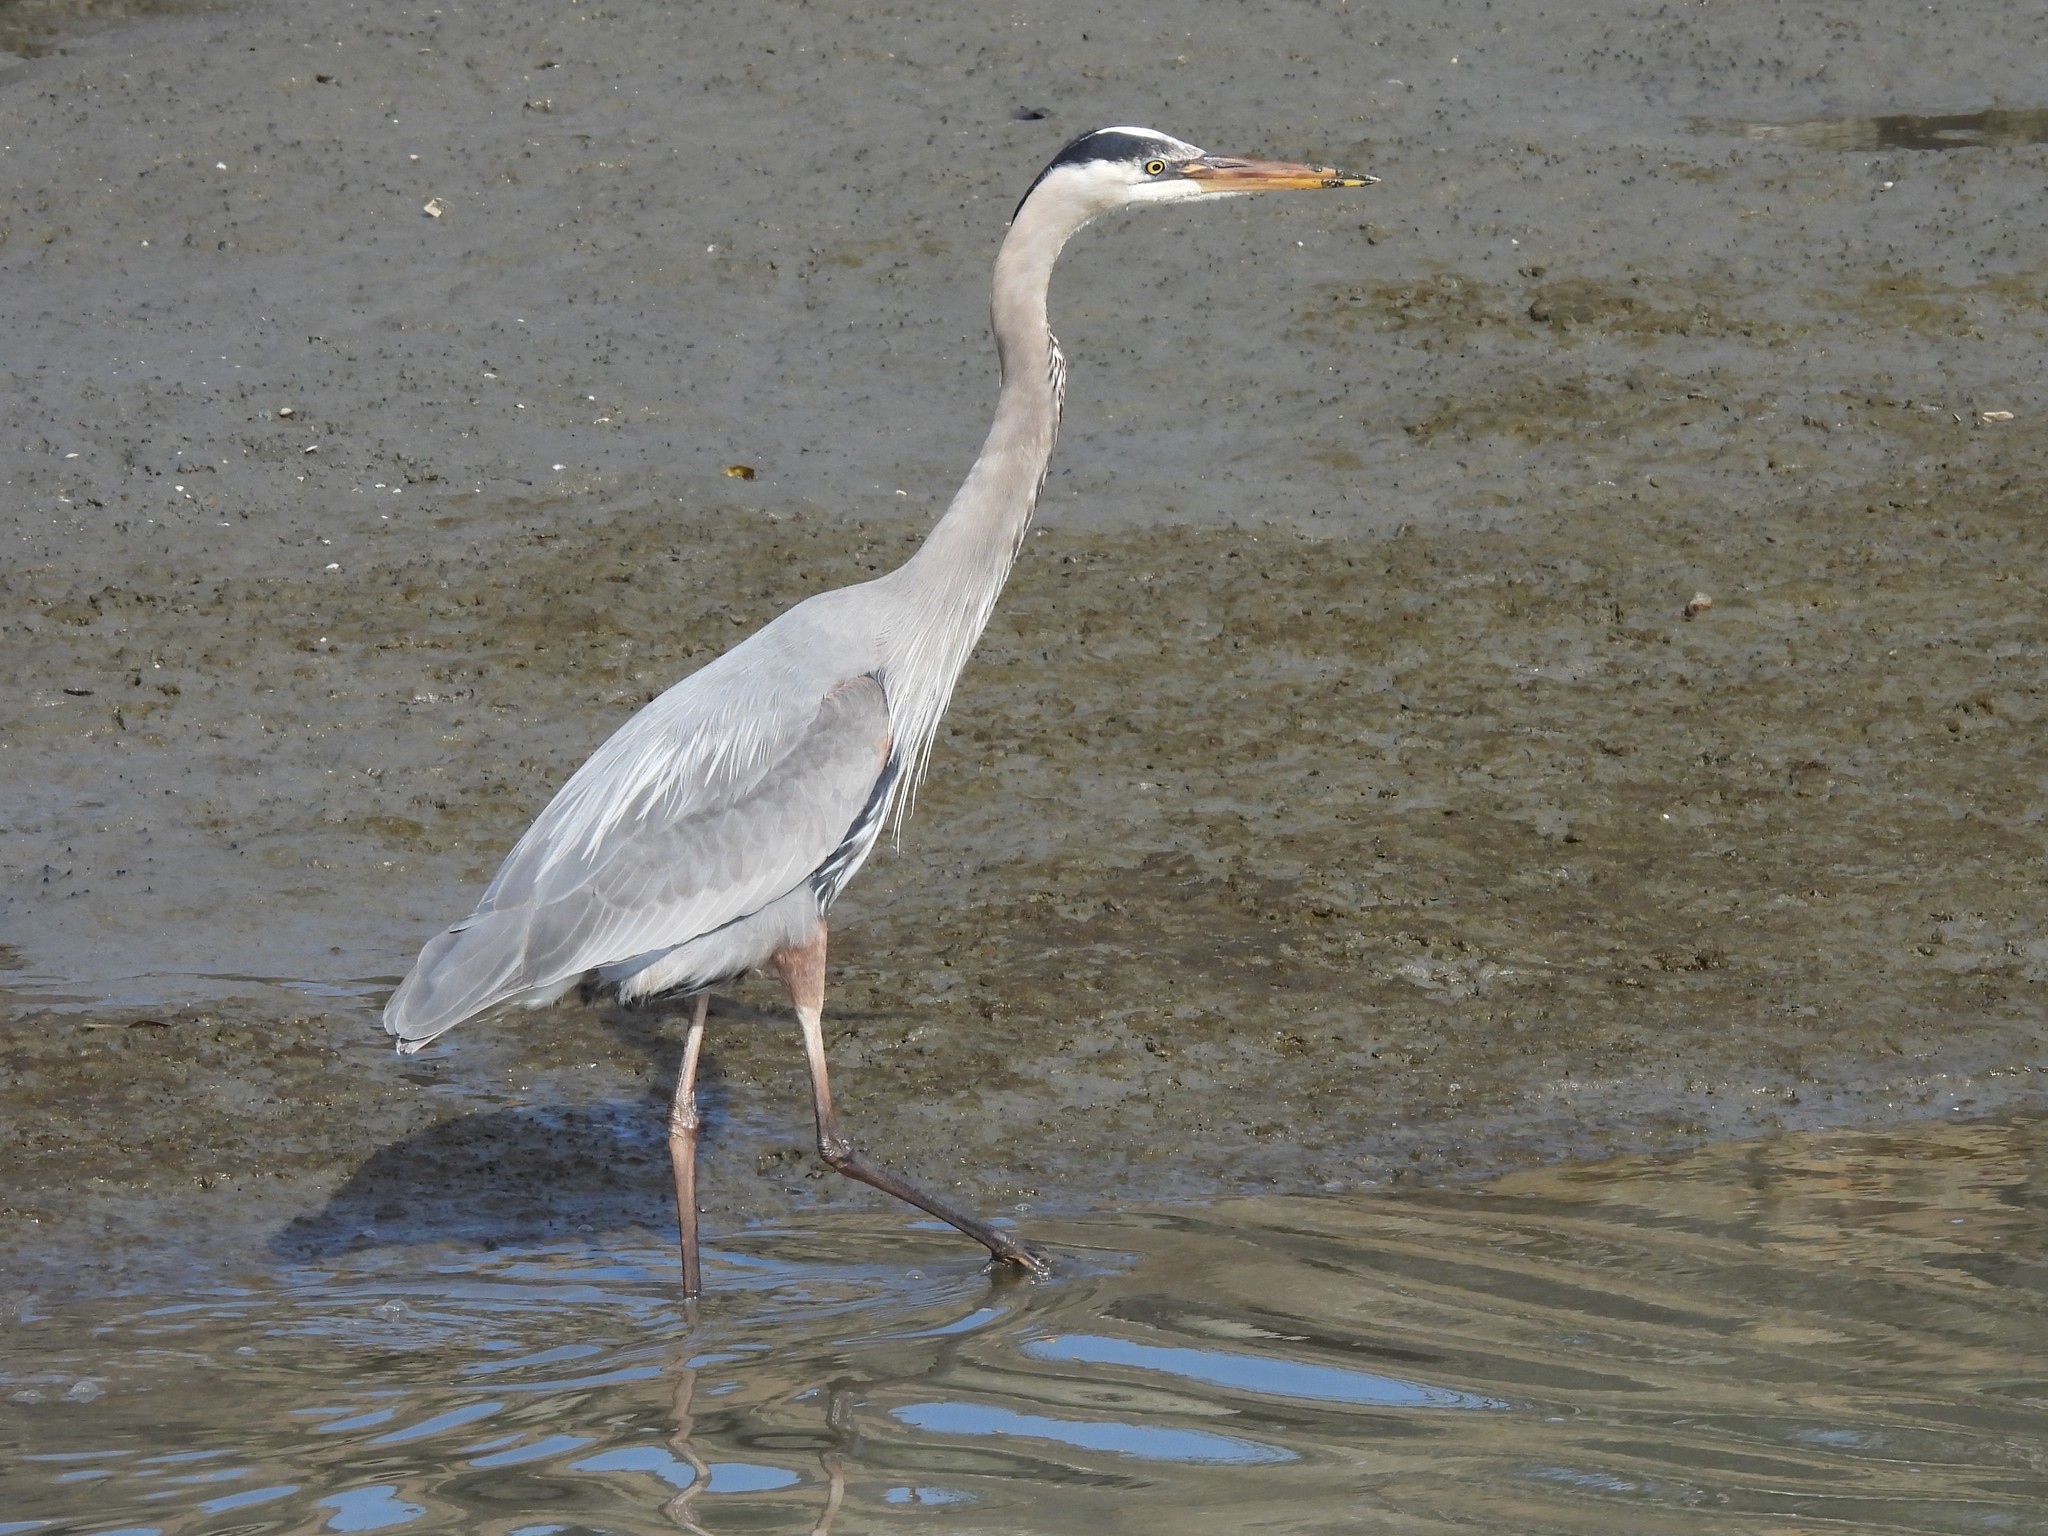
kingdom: Animalia
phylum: Chordata
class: Aves
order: Pelecaniformes
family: Ardeidae
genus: Ardea
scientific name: Ardea herodias
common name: Great blue heron
